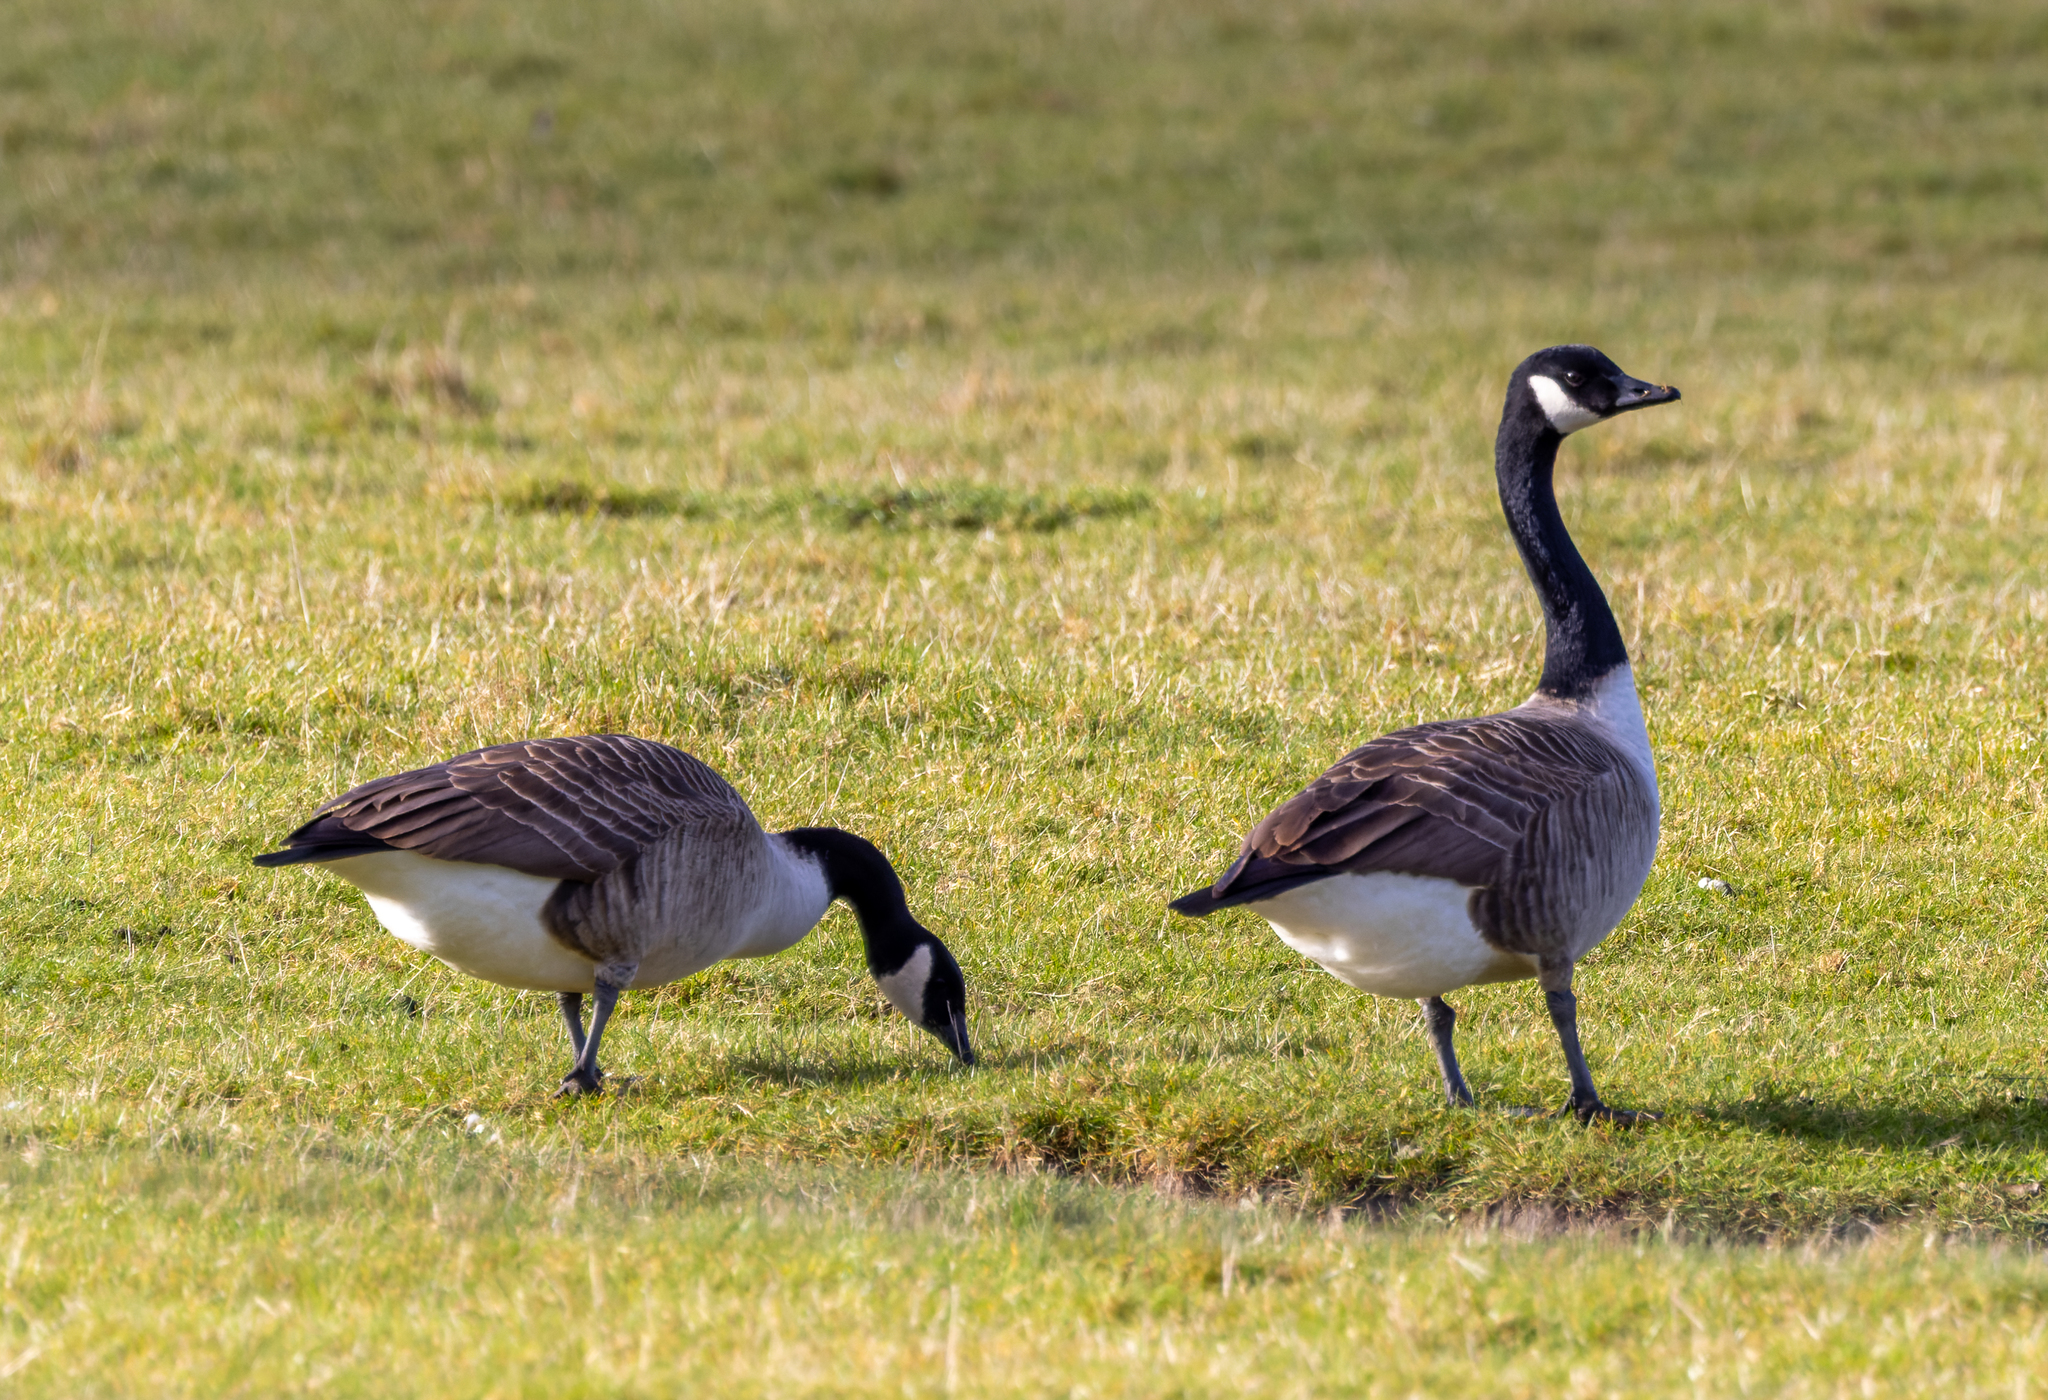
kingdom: Animalia
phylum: Chordata
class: Aves
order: Anseriformes
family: Anatidae
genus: Branta
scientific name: Branta canadensis
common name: Canada goose
